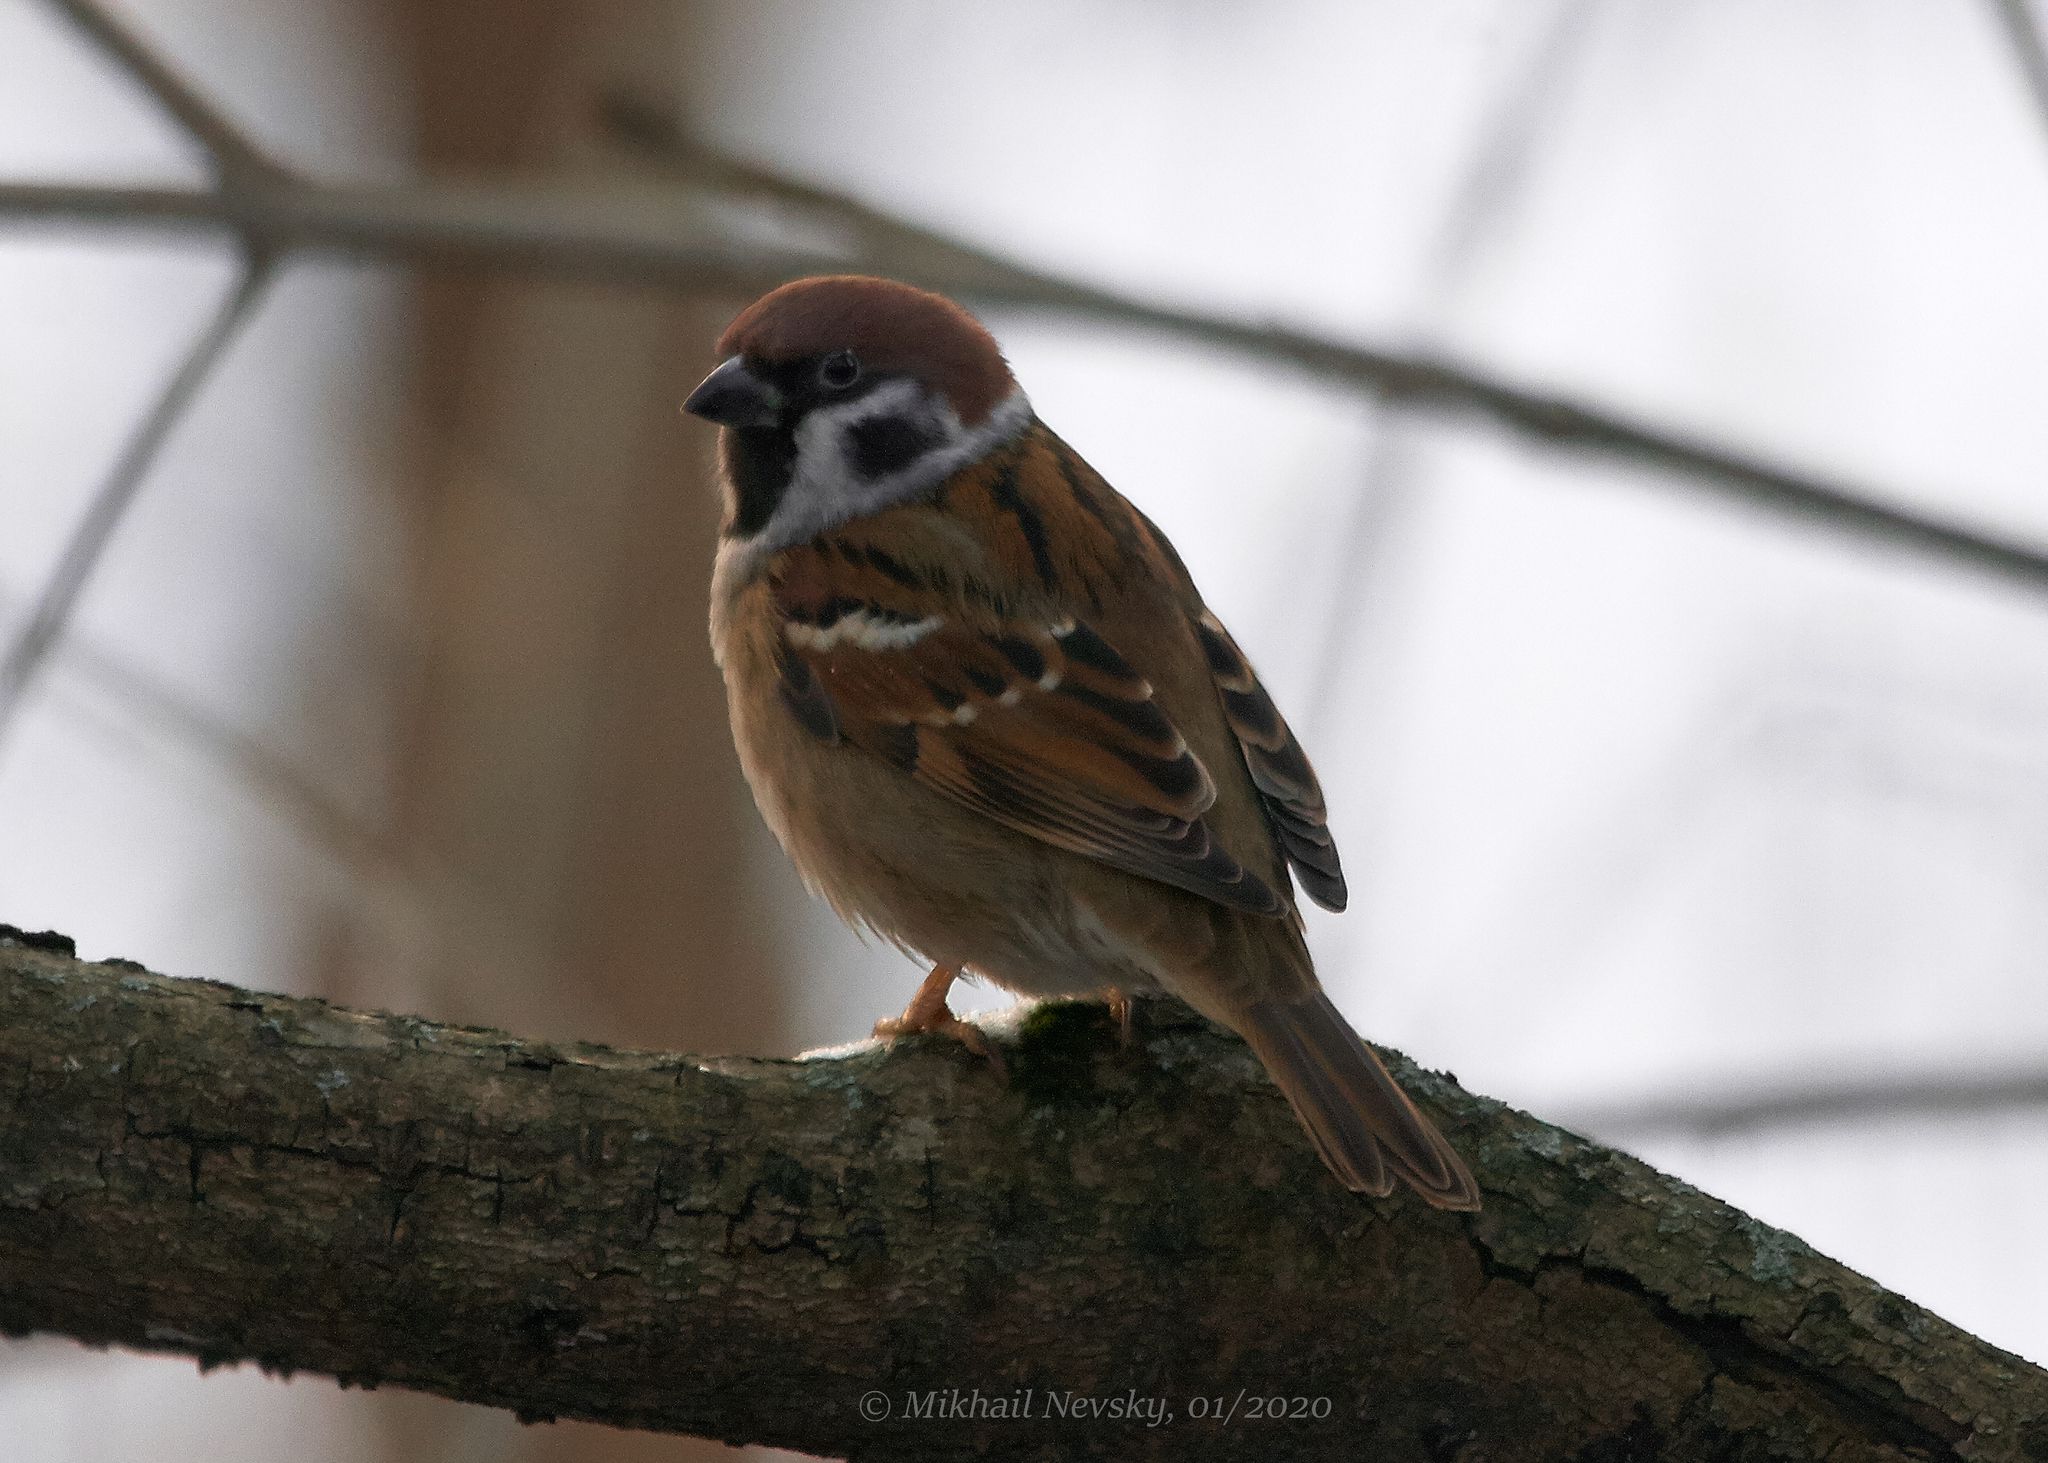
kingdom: Animalia
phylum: Chordata
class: Aves
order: Passeriformes
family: Passeridae
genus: Passer
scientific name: Passer montanus
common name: Eurasian tree sparrow
